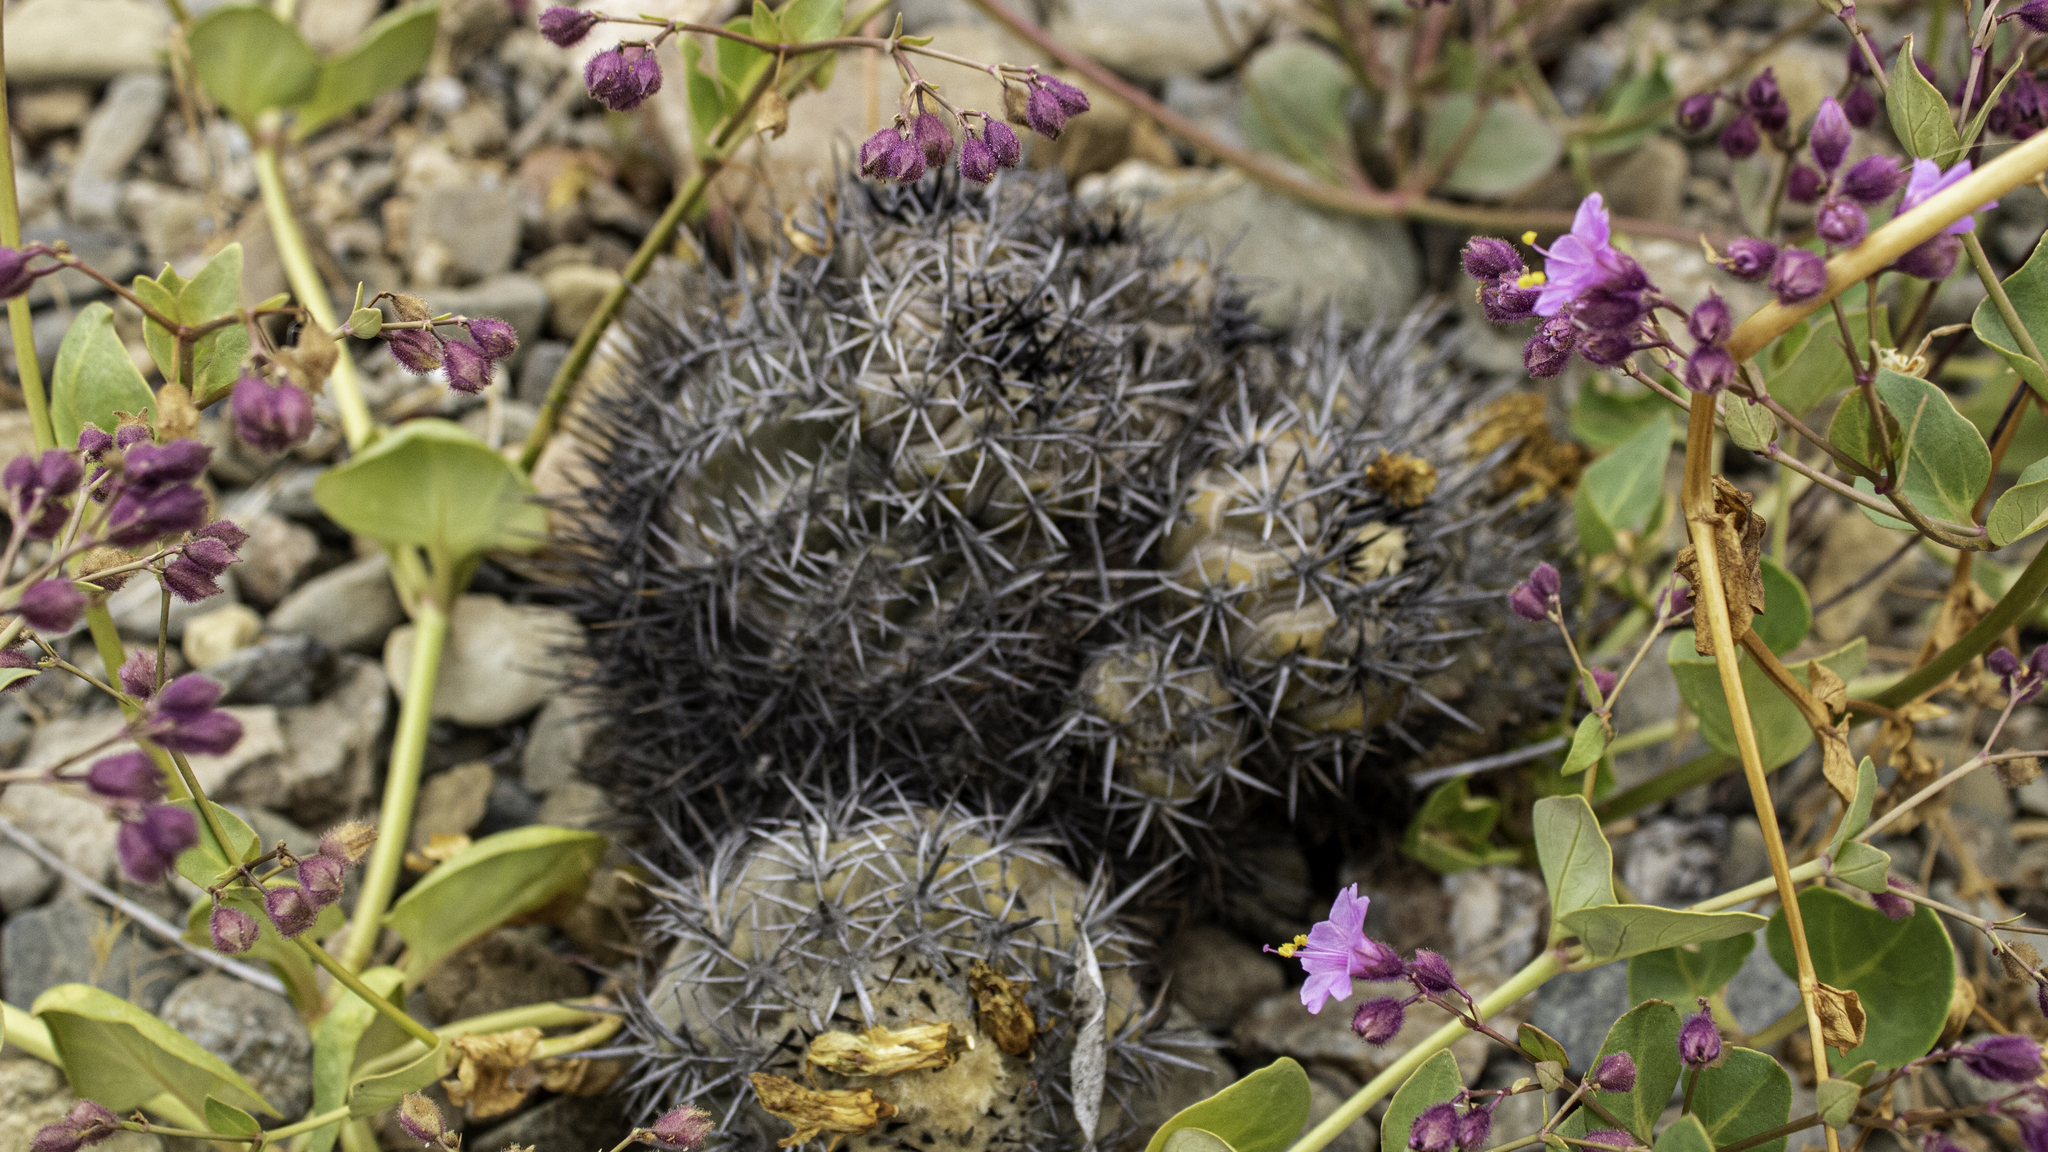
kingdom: Plantae
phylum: Tracheophyta
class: Magnoliopsida
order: Caryophyllales
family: Cactaceae
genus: Copiapoa
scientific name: Copiapoa echinoides
